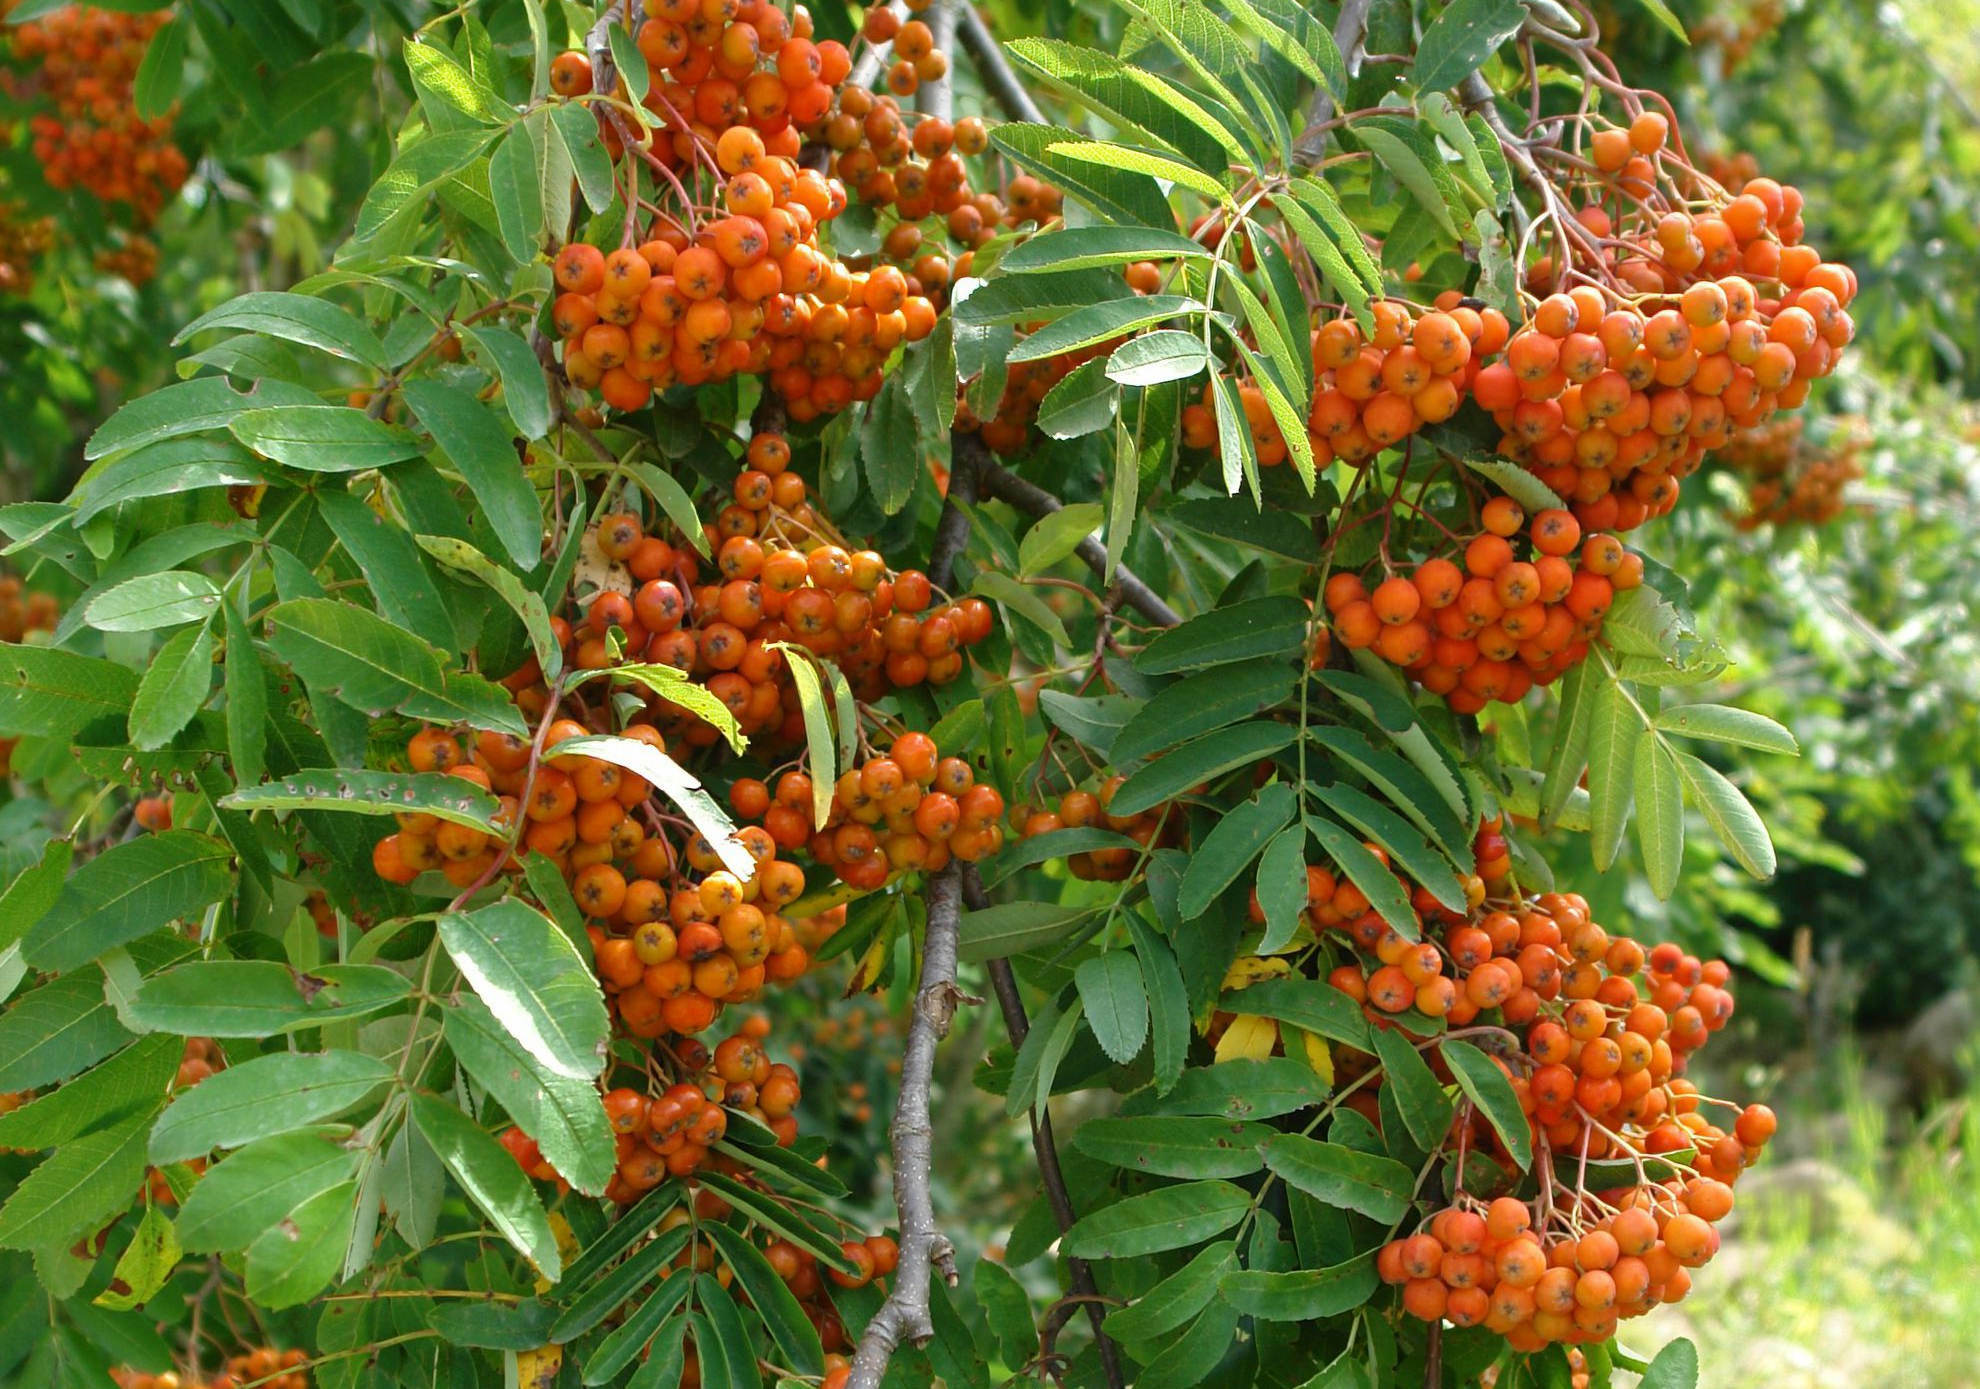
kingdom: Plantae
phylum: Tracheophyta
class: Magnoliopsida
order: Rosales
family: Rosaceae
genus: Sorbus
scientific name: Sorbus aucuparia
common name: Rowan
